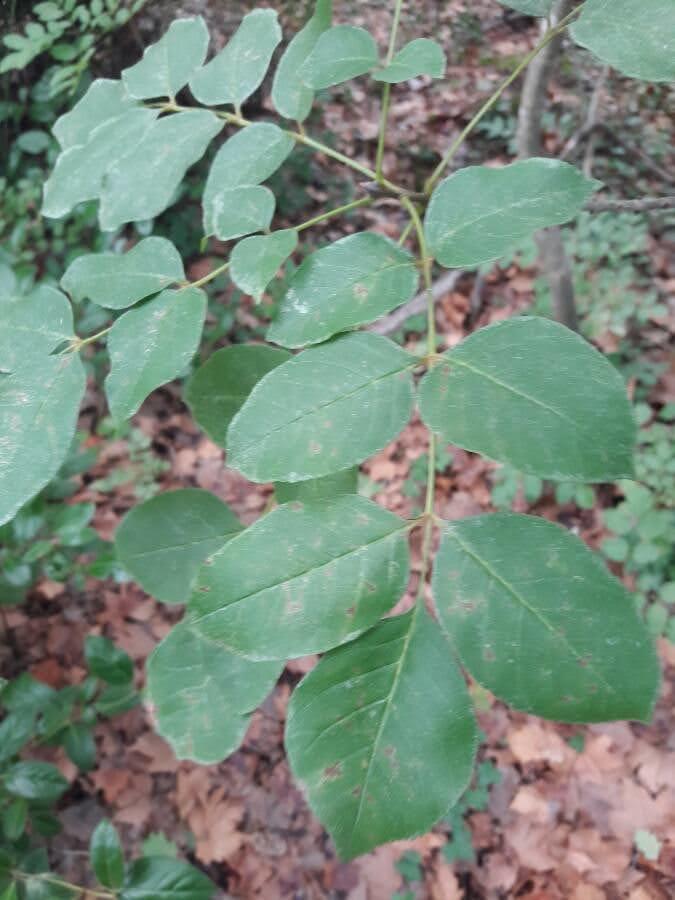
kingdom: Plantae
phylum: Tracheophyta
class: Magnoliopsida
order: Lamiales
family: Oleaceae
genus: Fraxinus
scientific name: Fraxinus ornus
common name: Manna ash
